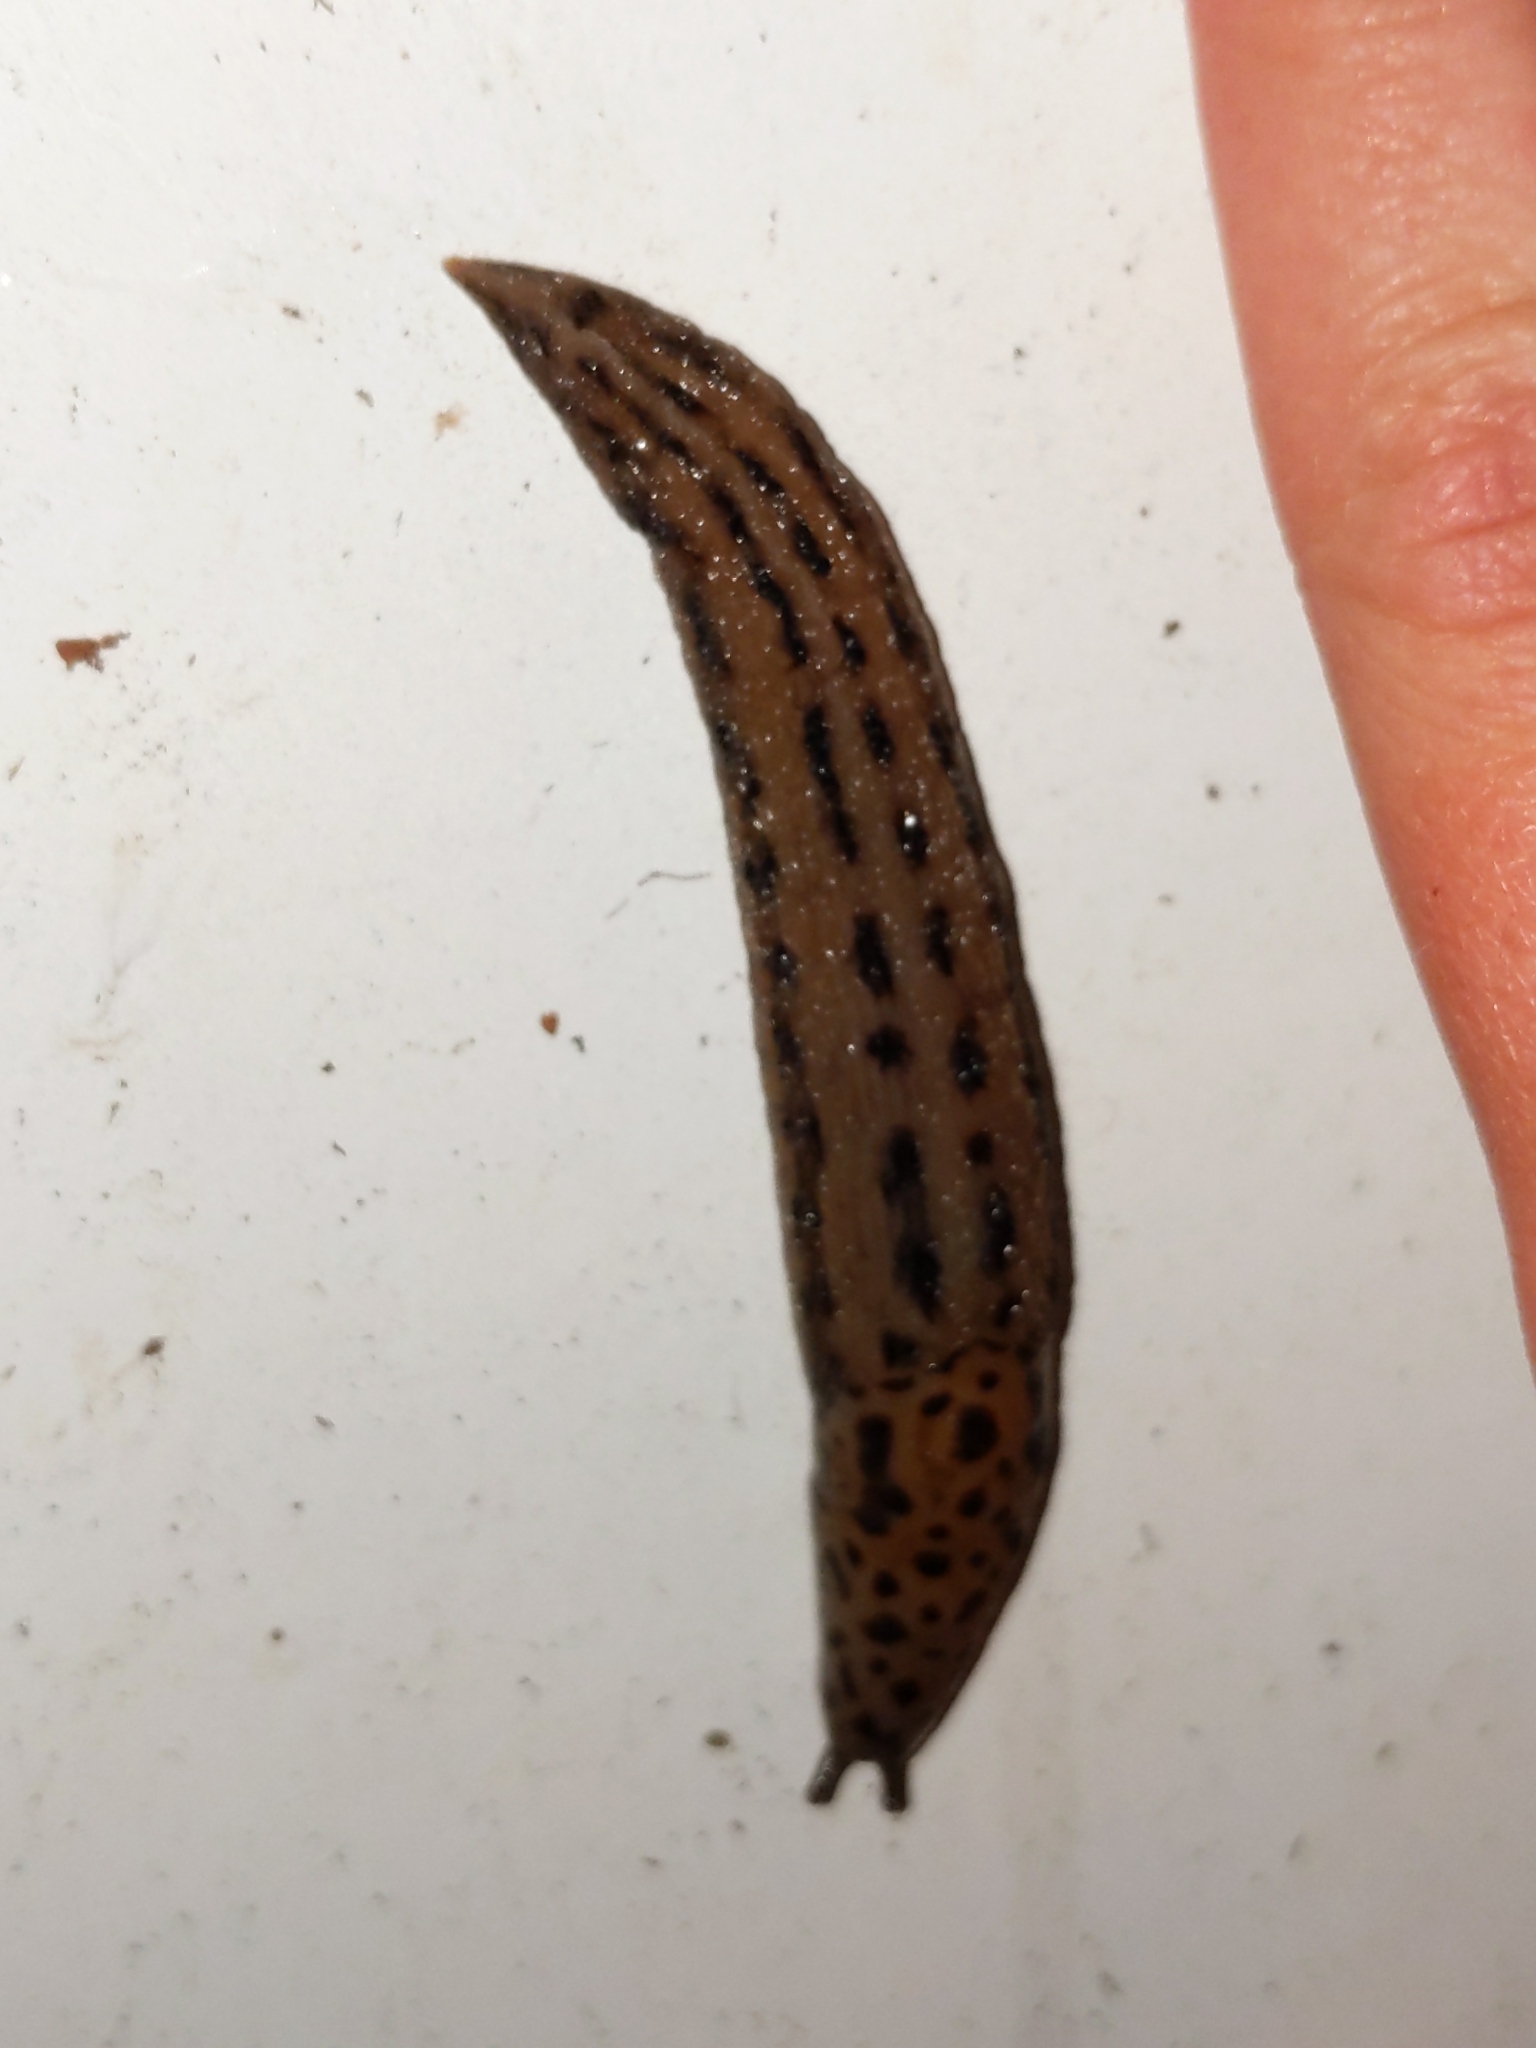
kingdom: Animalia
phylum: Mollusca
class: Gastropoda
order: Stylommatophora
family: Limacidae
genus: Limax
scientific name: Limax maximus
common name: Great grey slug
